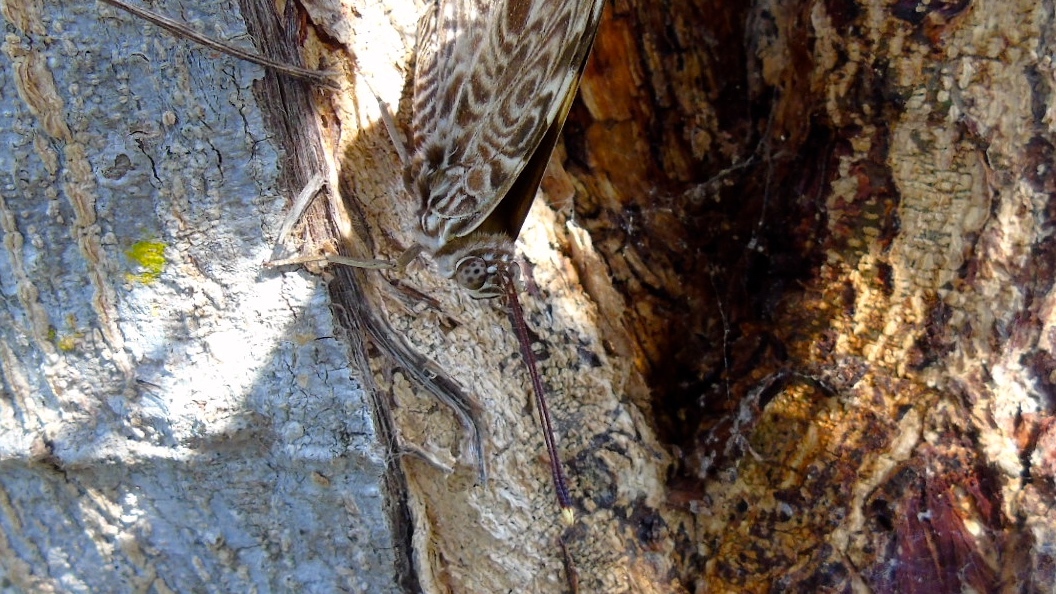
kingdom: Animalia
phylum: Arthropoda
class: Insecta
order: Lepidoptera
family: Nymphalidae
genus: Smyrna
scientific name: Smyrna blomfildia
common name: Blomfild's beauty
